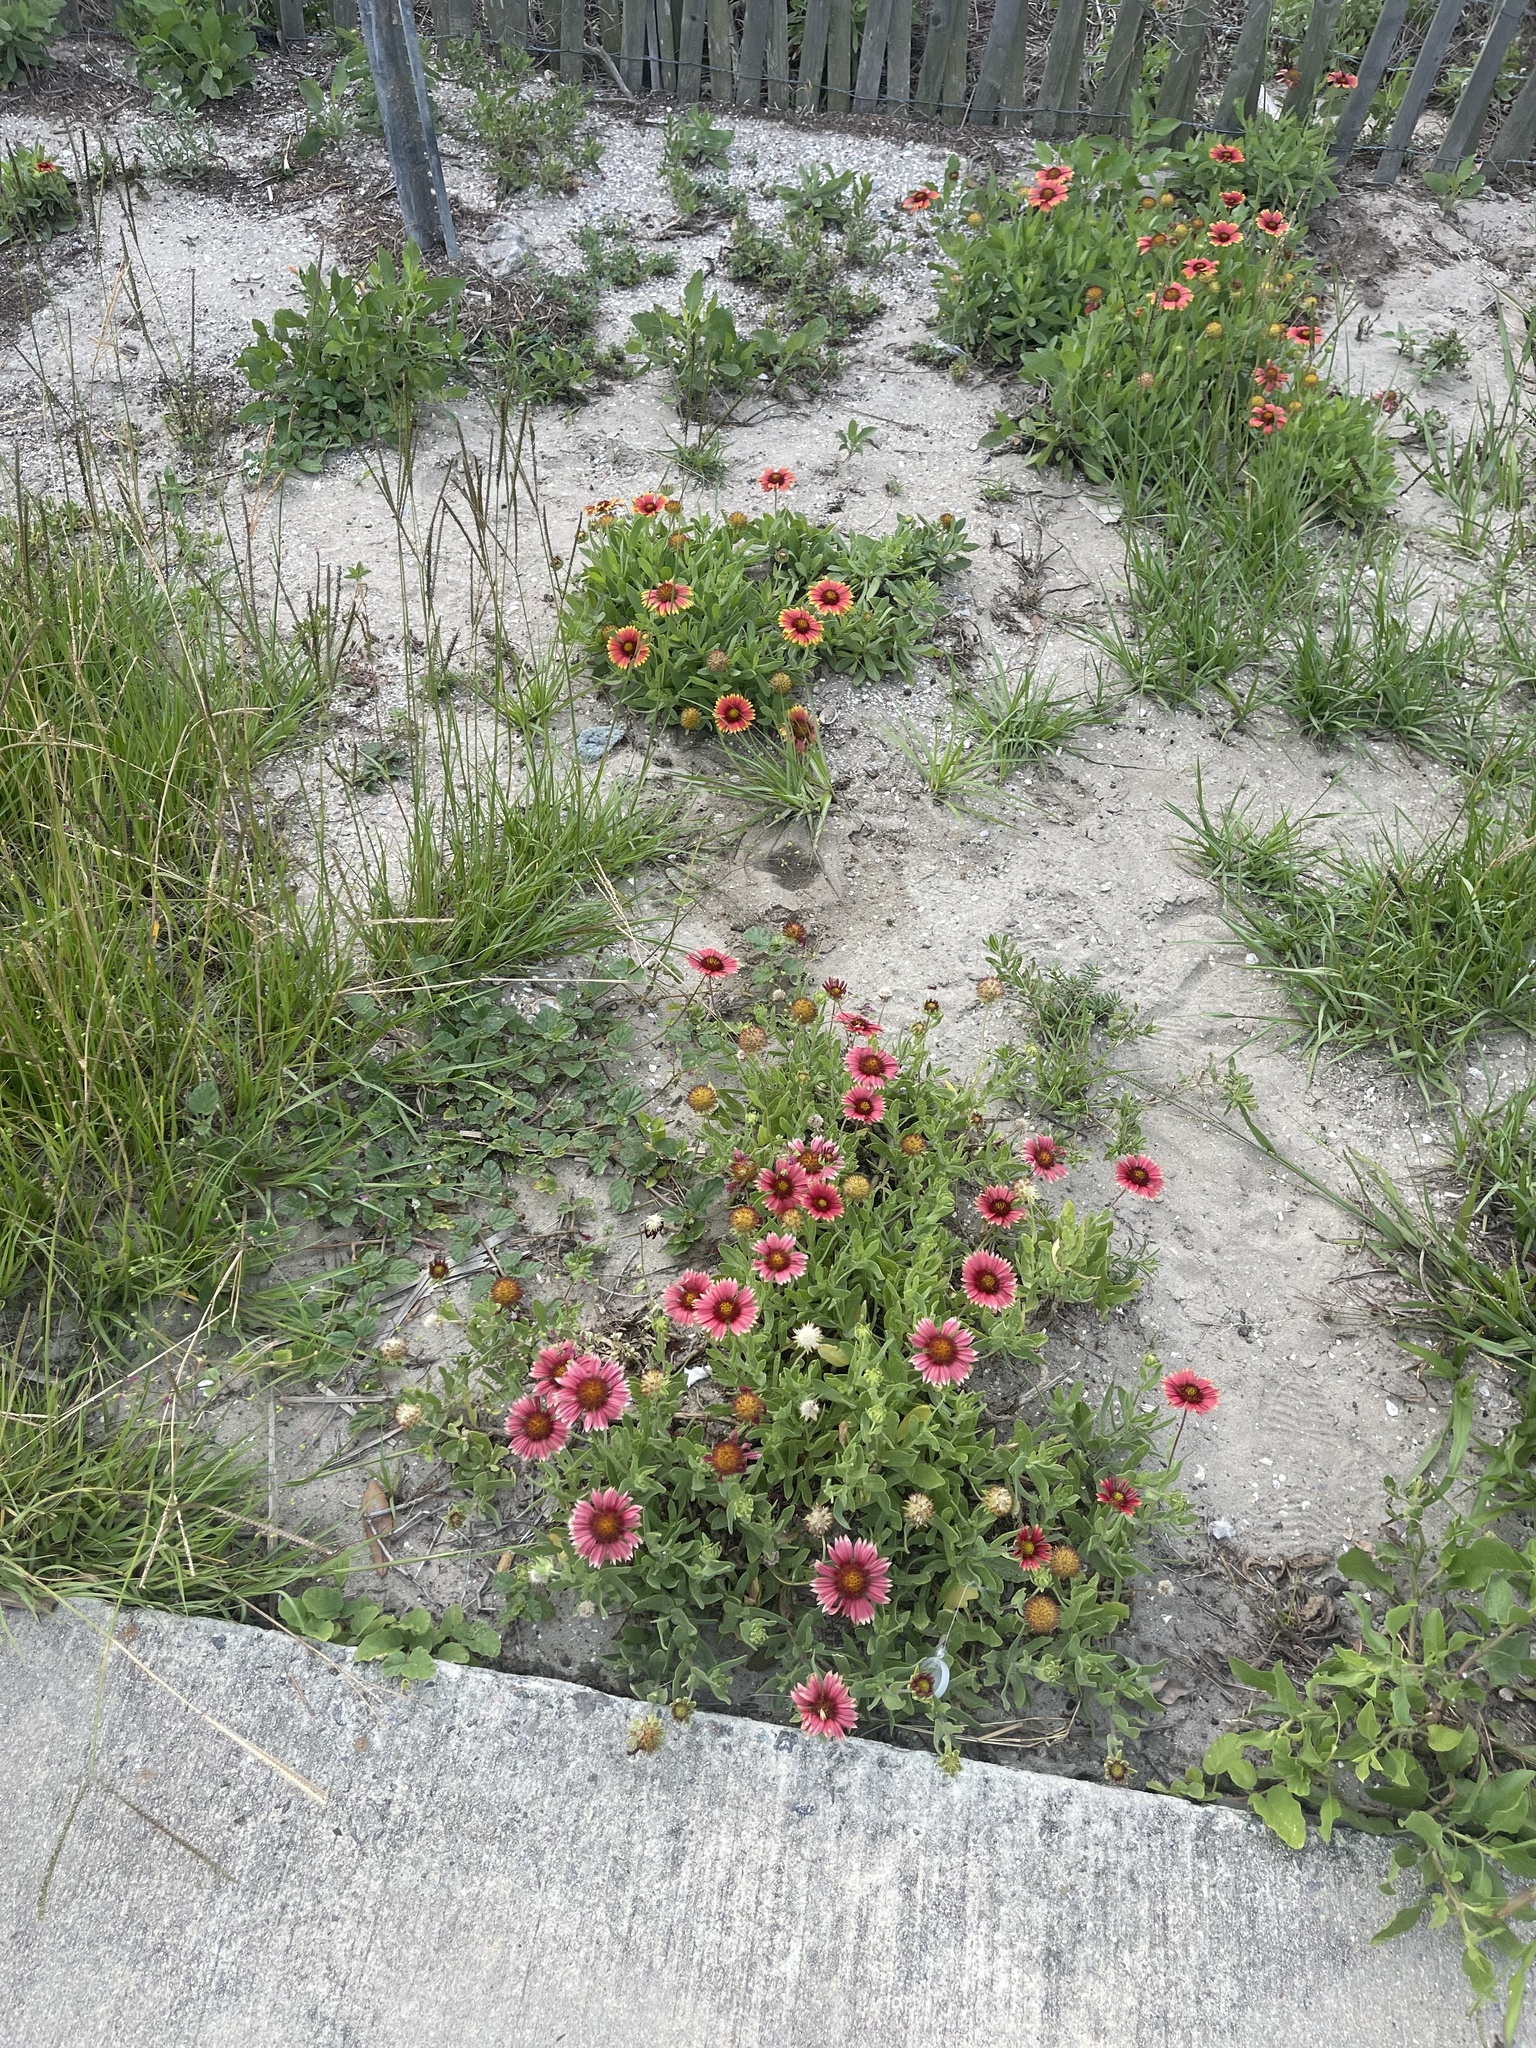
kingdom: Plantae
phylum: Tracheophyta
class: Magnoliopsida
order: Asterales
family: Asteraceae
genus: Gaillardia
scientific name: Gaillardia pulchella
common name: Firewheel
